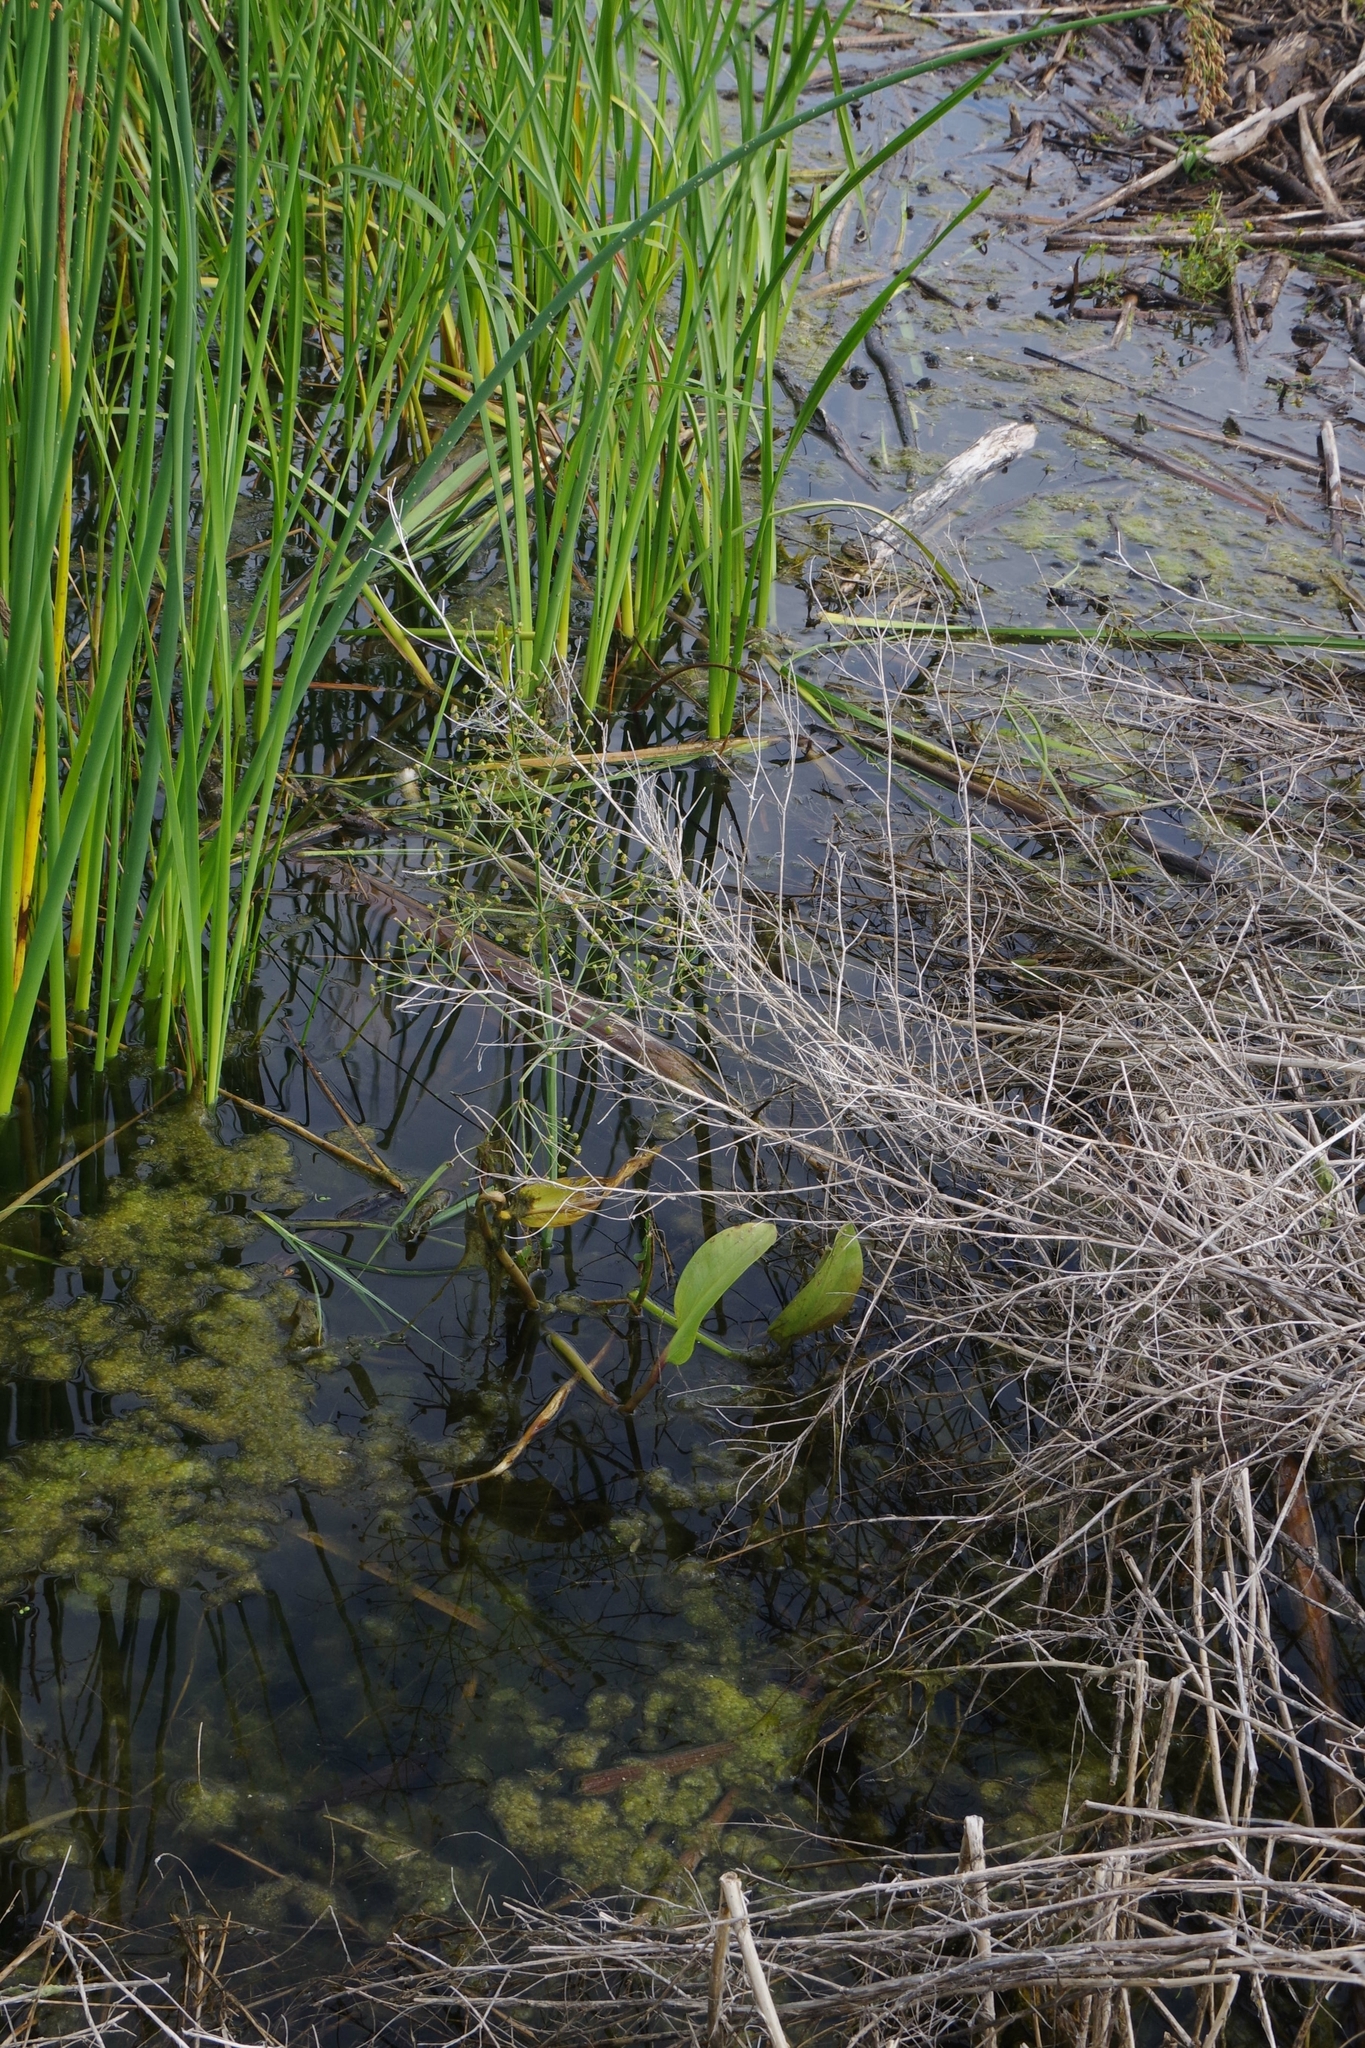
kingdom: Plantae
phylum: Tracheophyta
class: Liliopsida
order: Alismatales
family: Alismataceae
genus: Alisma
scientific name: Alisma triviale
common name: Northern water-plantain
